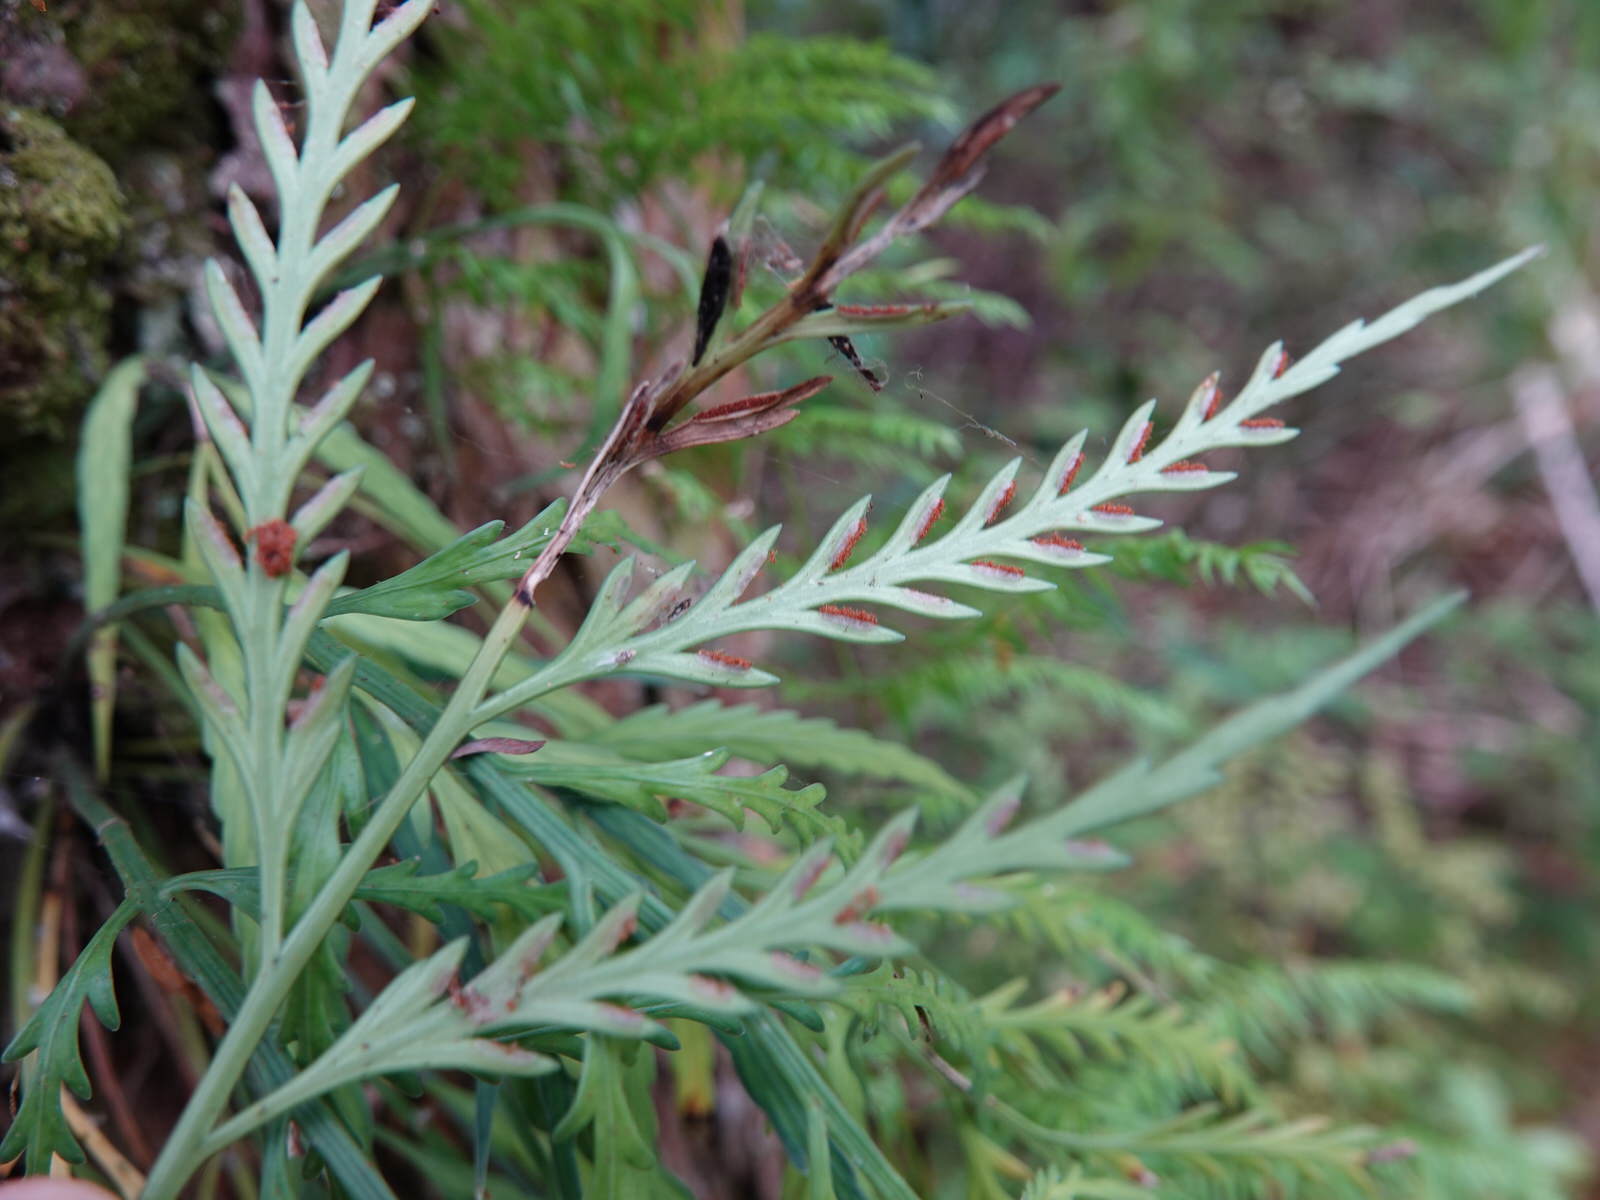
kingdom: Plantae
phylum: Tracheophyta
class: Polypodiopsida
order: Polypodiales
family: Aspleniaceae
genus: Asplenium
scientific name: Asplenium flaccidum
